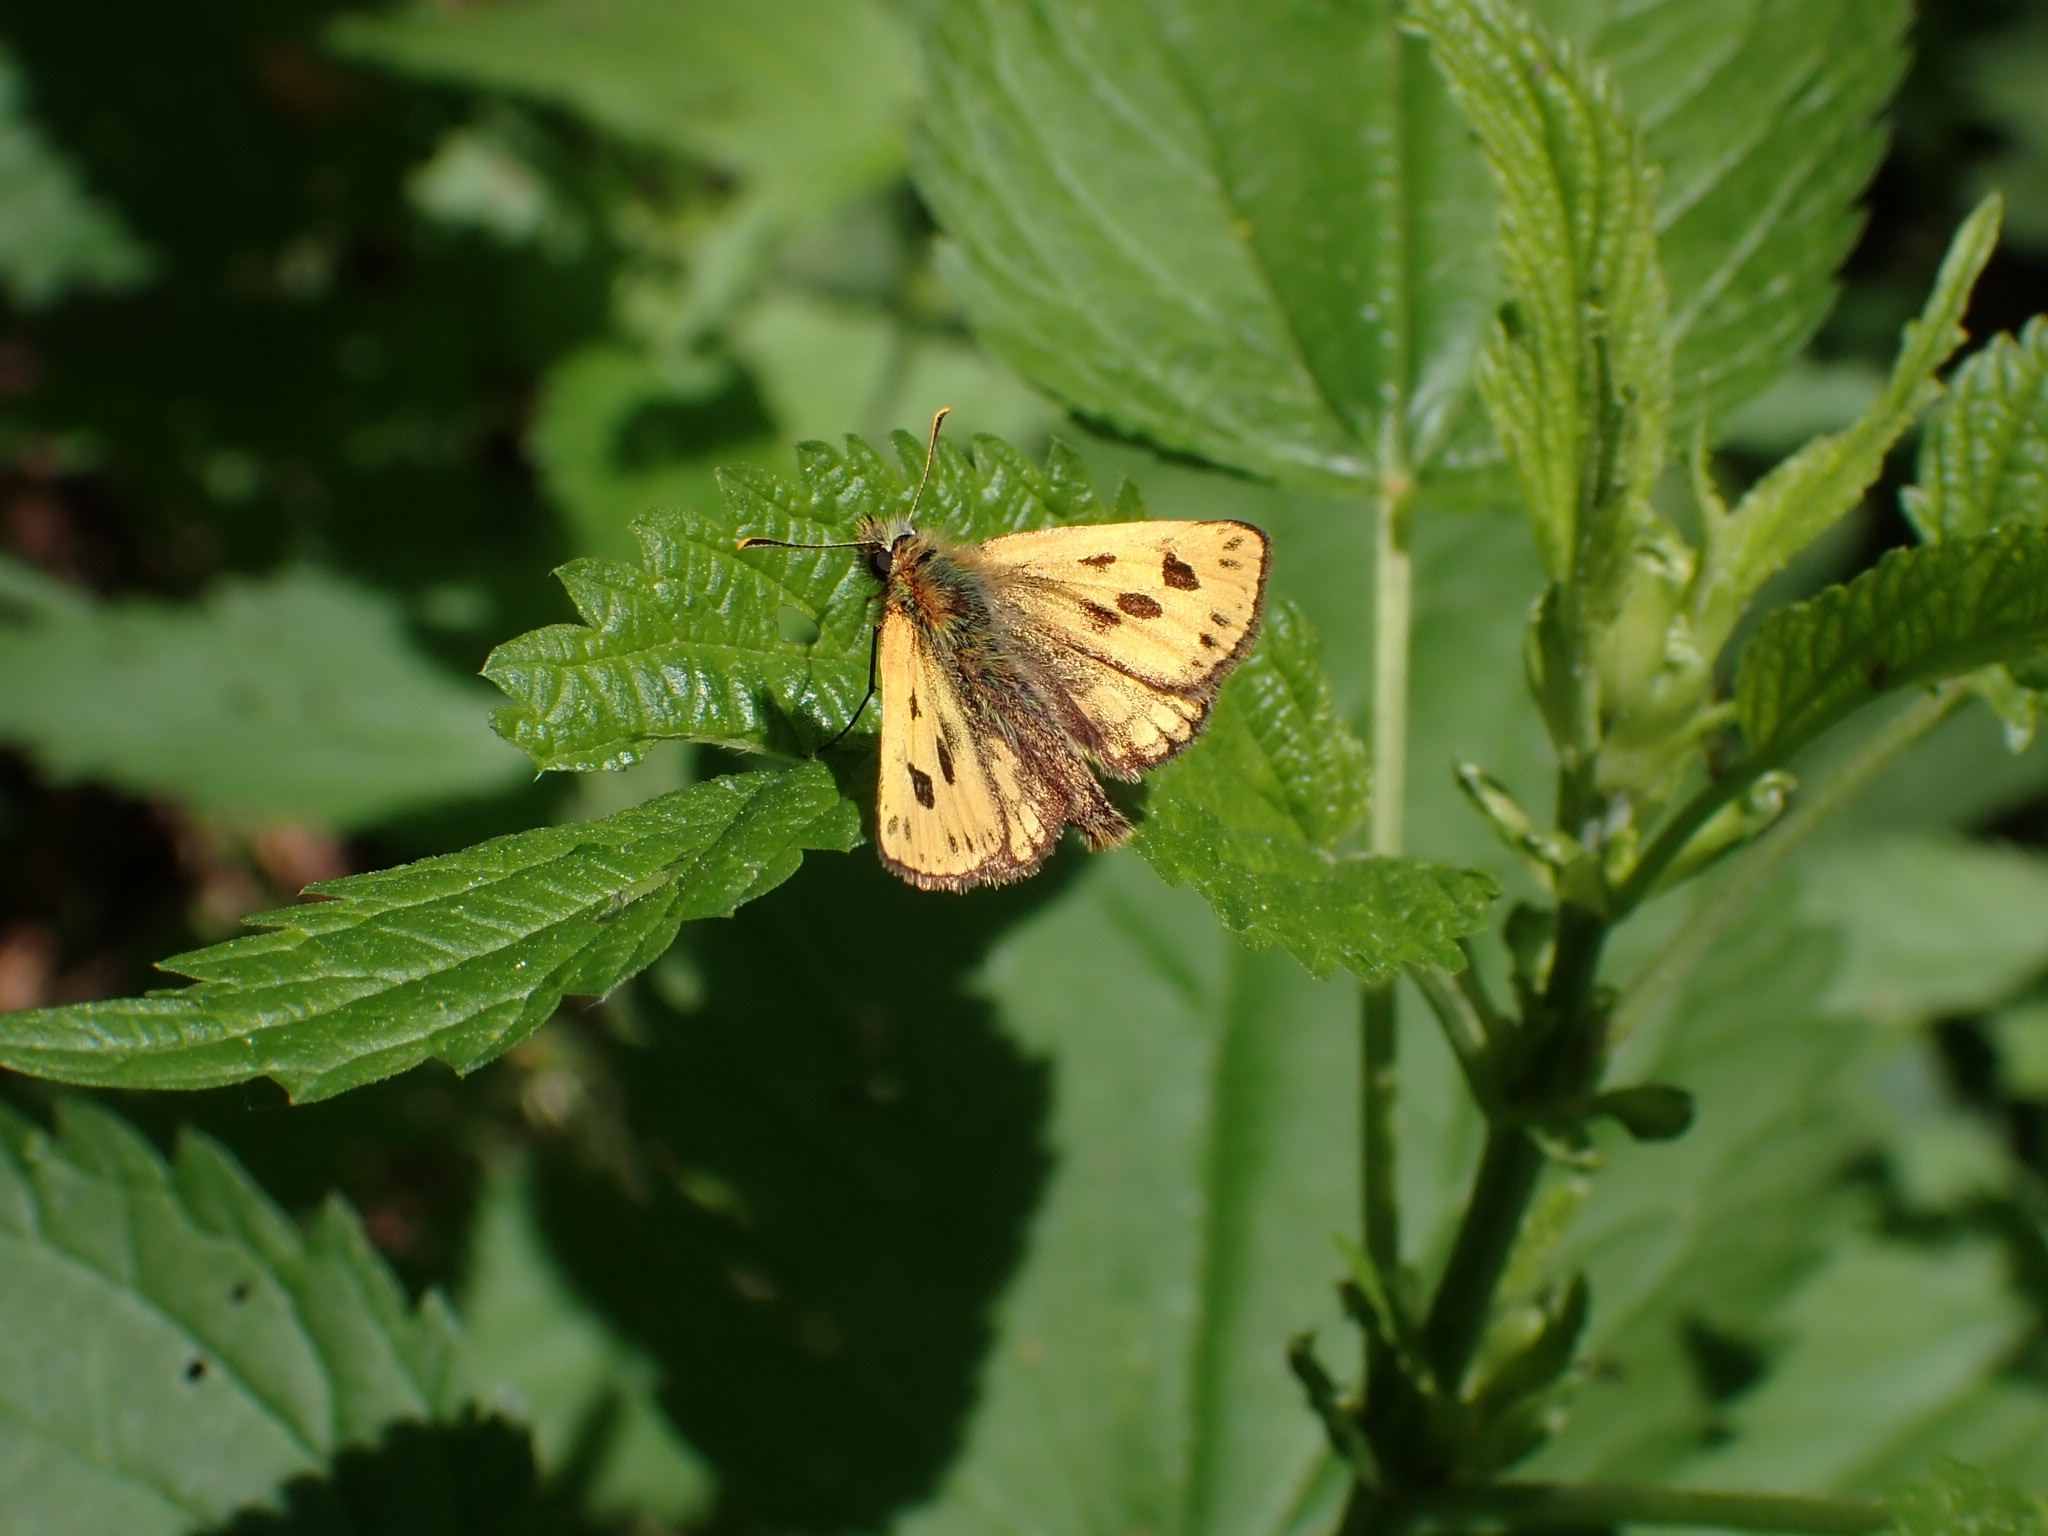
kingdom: Animalia
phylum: Arthropoda
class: Insecta
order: Lepidoptera
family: Hesperiidae
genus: Carterocephalus
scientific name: Carterocephalus silvicola
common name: Northern chequered skipper
